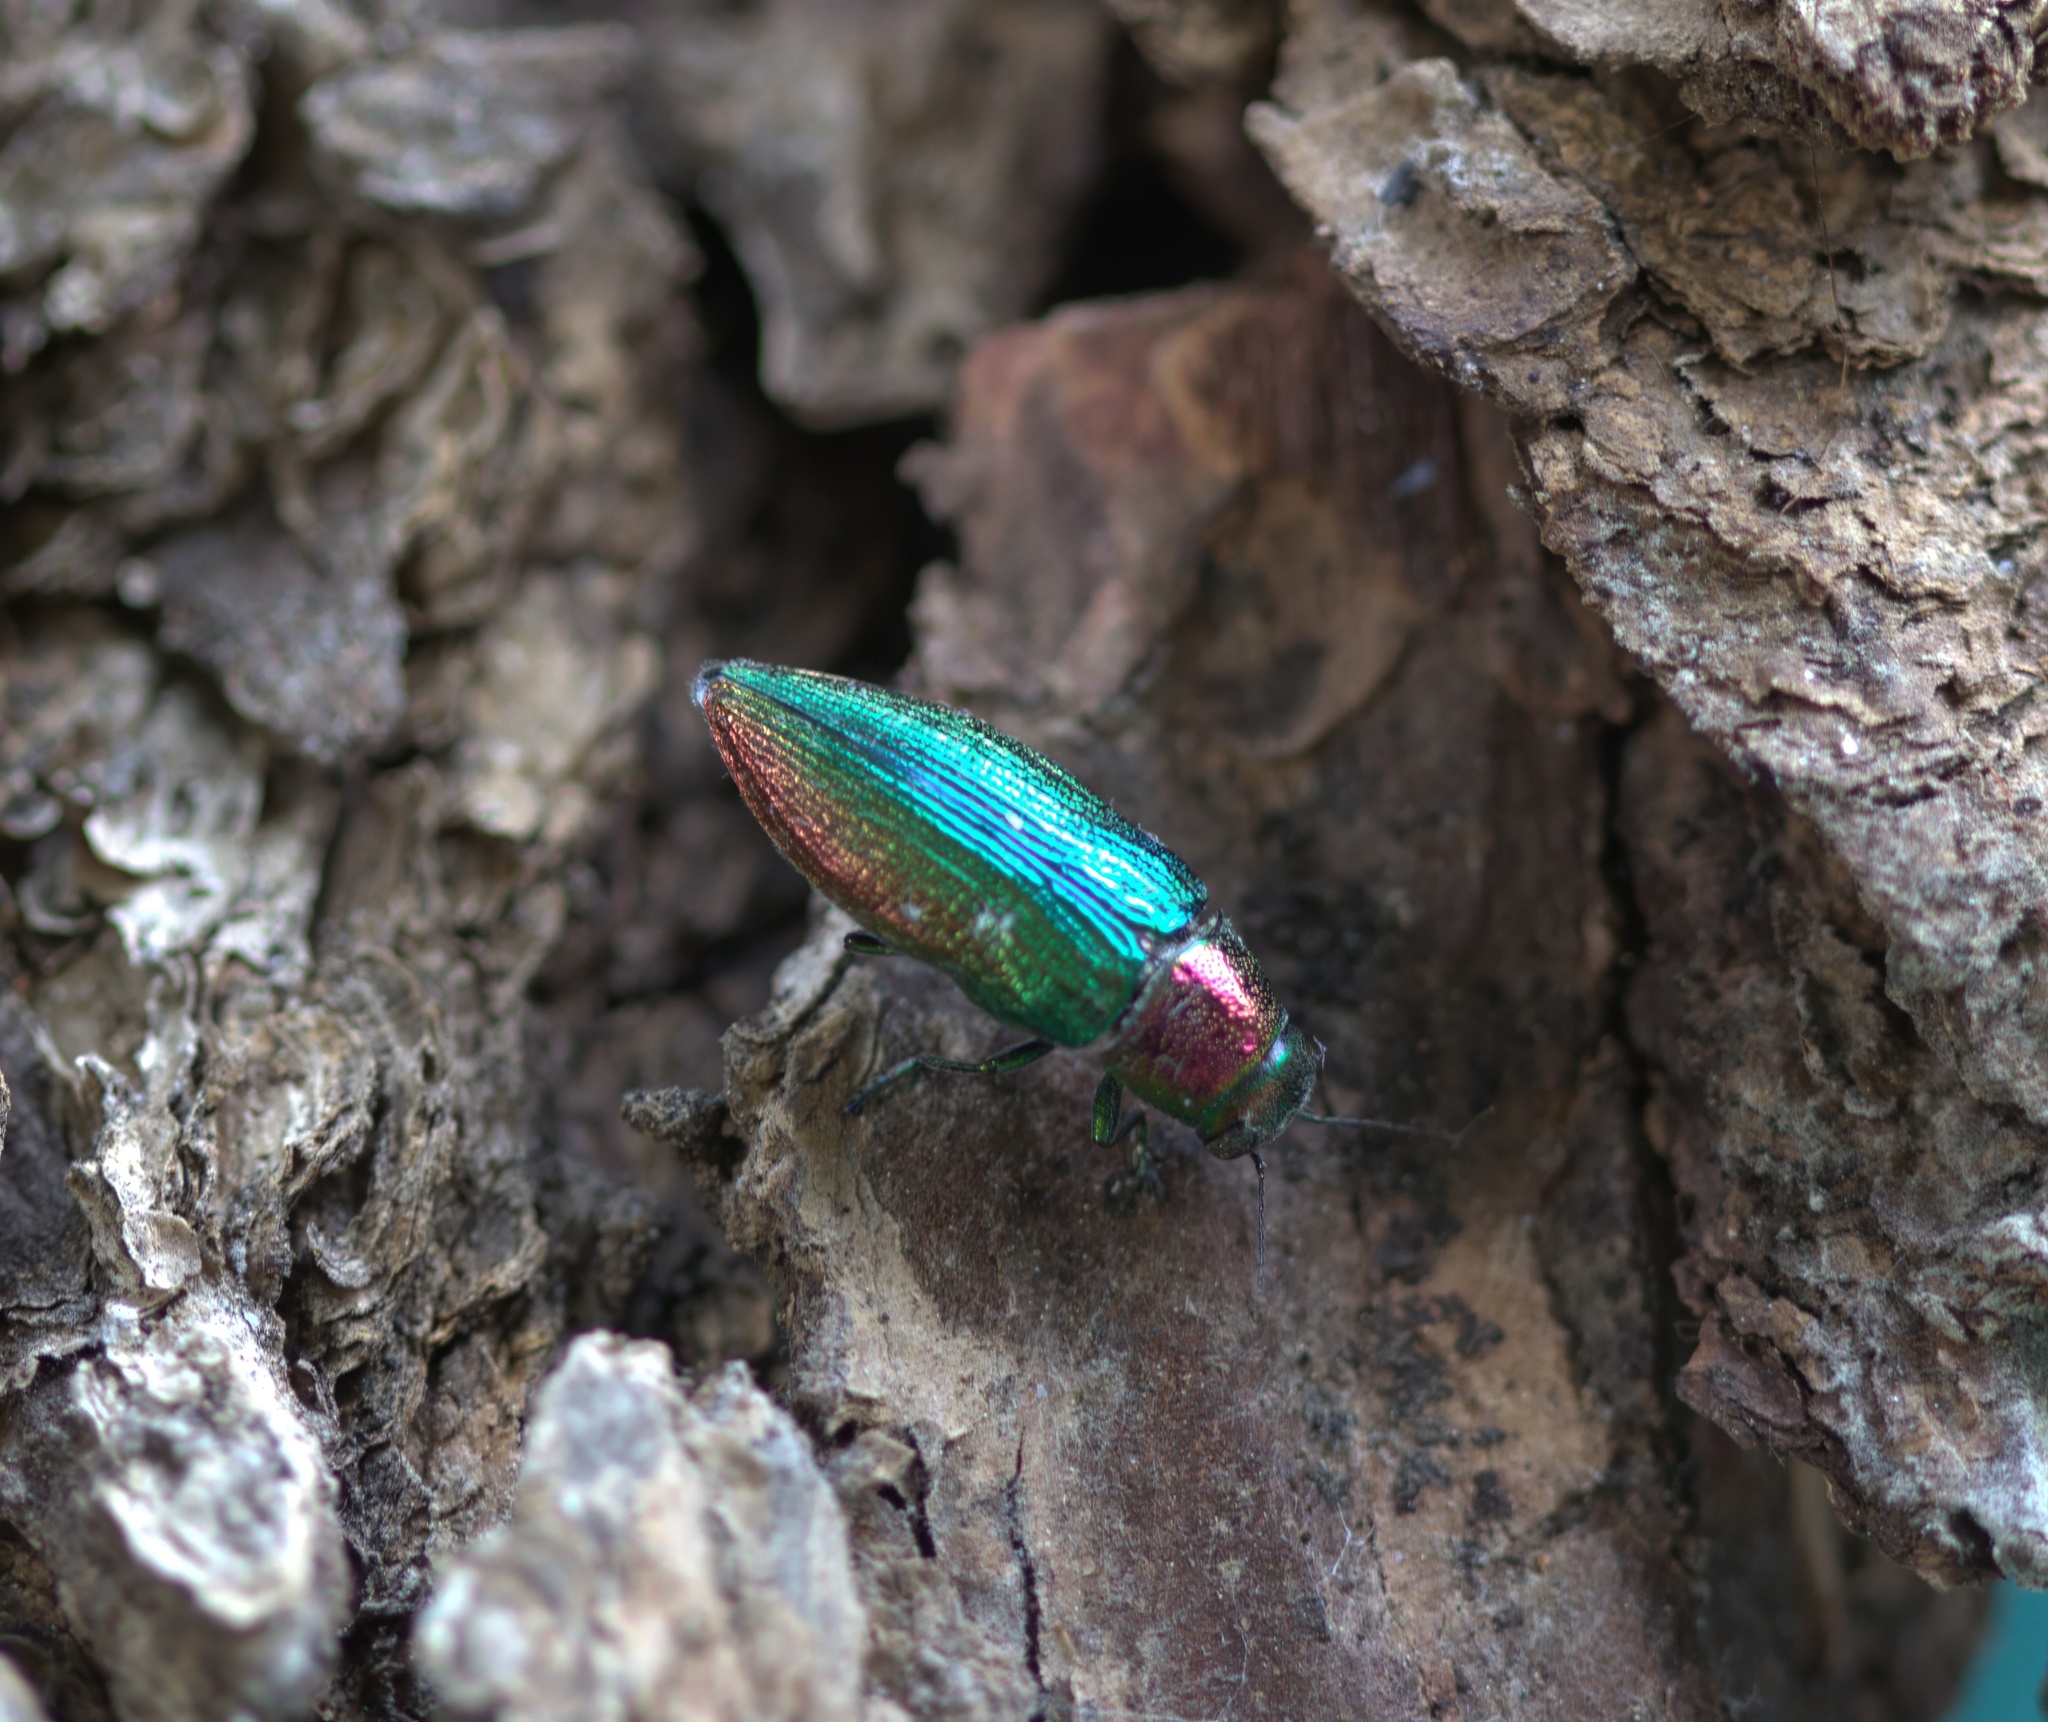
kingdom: Animalia
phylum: Arthropoda
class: Insecta
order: Coleoptera
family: Buprestidae
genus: Buprestis
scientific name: Buprestis connexa
